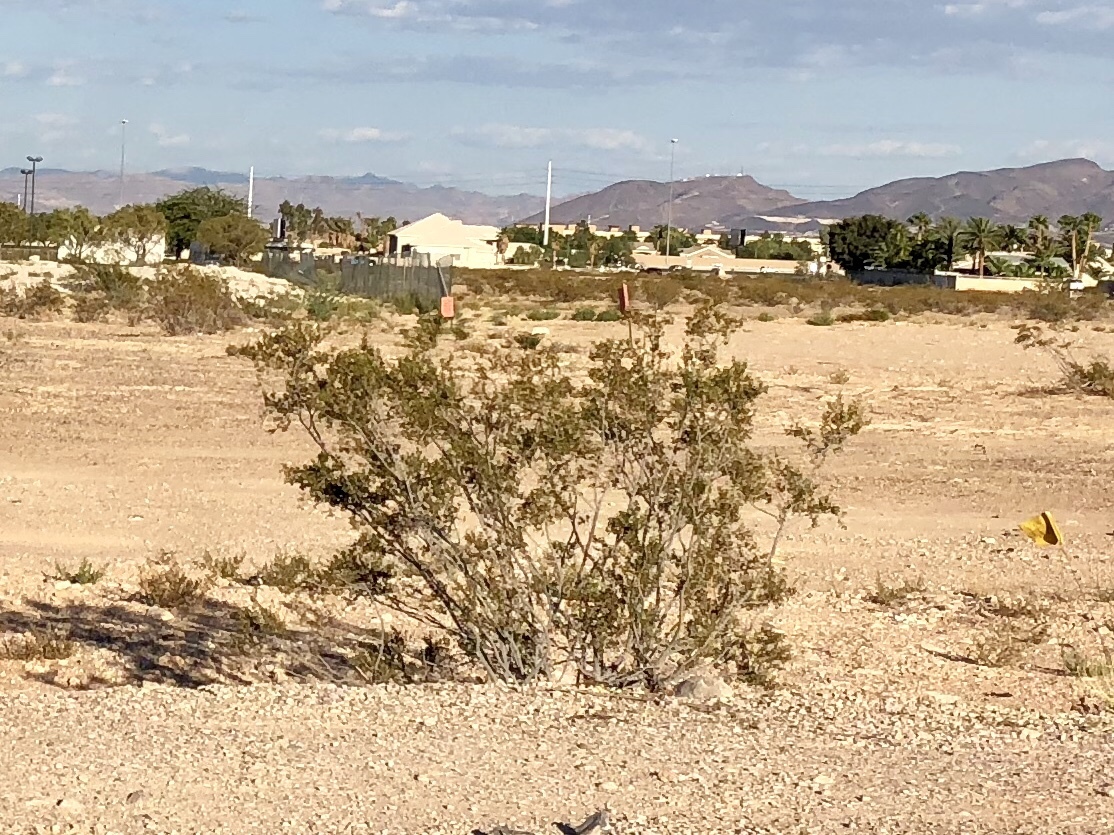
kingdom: Plantae
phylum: Tracheophyta
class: Magnoliopsida
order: Zygophyllales
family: Zygophyllaceae
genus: Larrea
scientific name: Larrea tridentata
